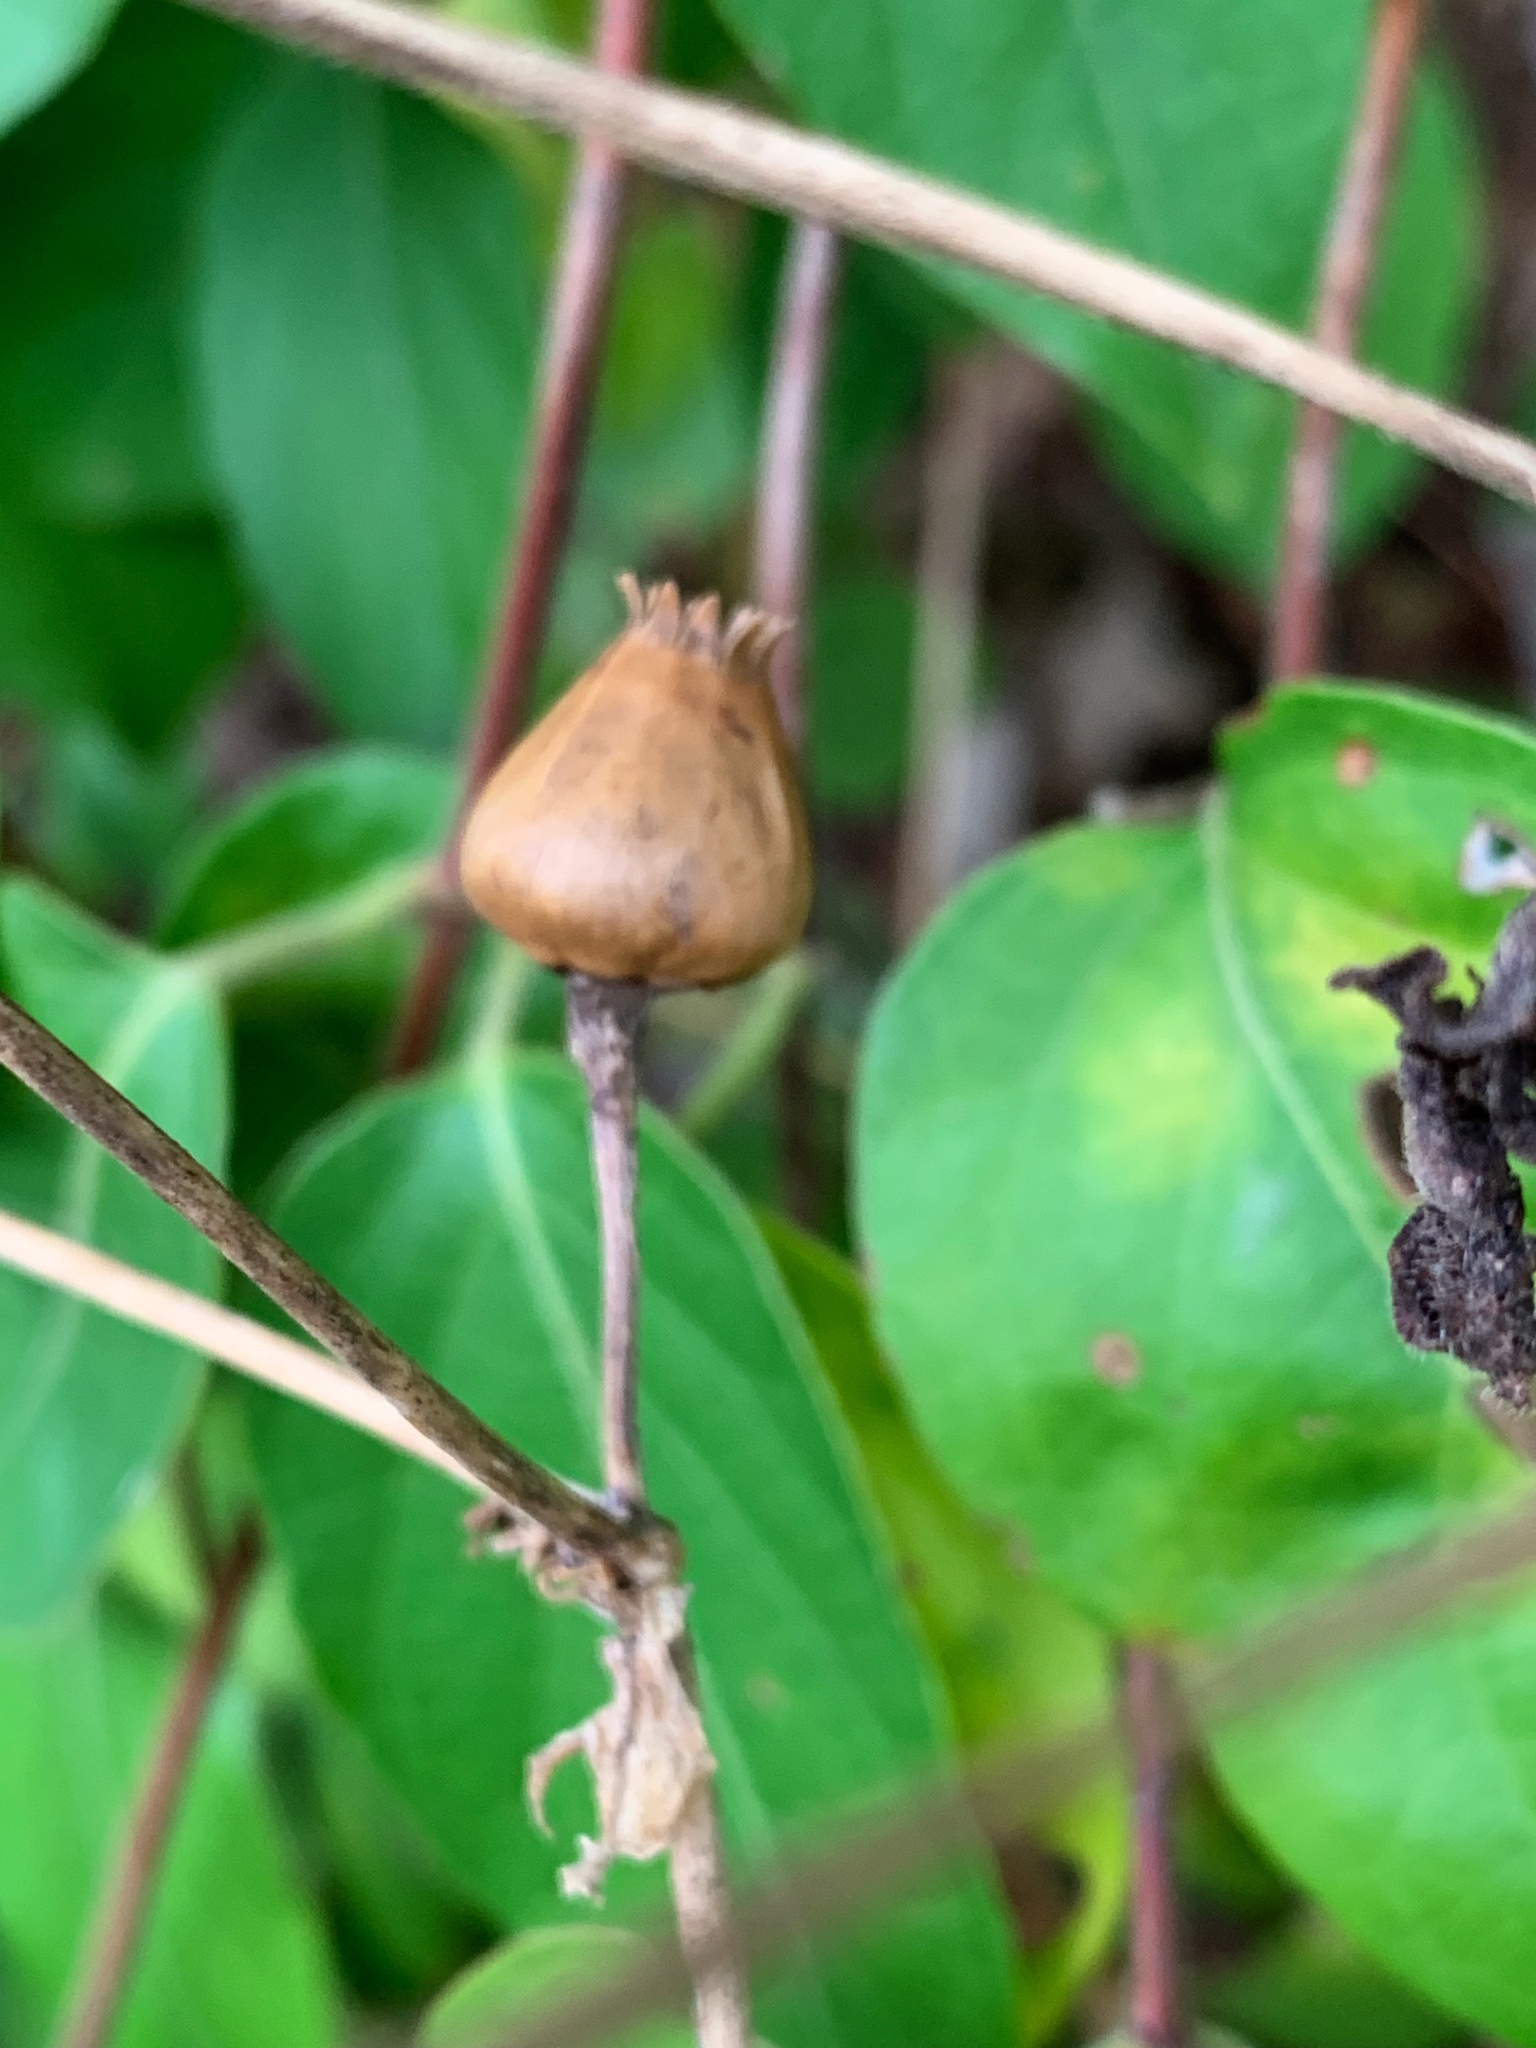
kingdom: Plantae
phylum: Tracheophyta
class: Magnoliopsida
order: Caryophyllales
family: Caryophyllaceae
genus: Silene
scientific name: Silene latifolia
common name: White campion
